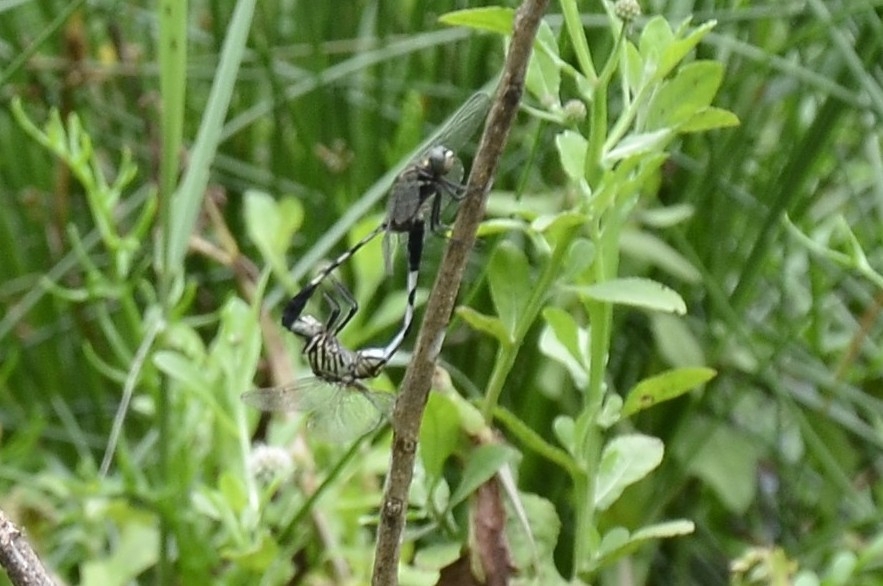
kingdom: Animalia
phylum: Arthropoda
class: Insecta
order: Odonata
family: Libellulidae
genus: Orthetrum
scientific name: Orthetrum sabina
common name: Slender skimmer
